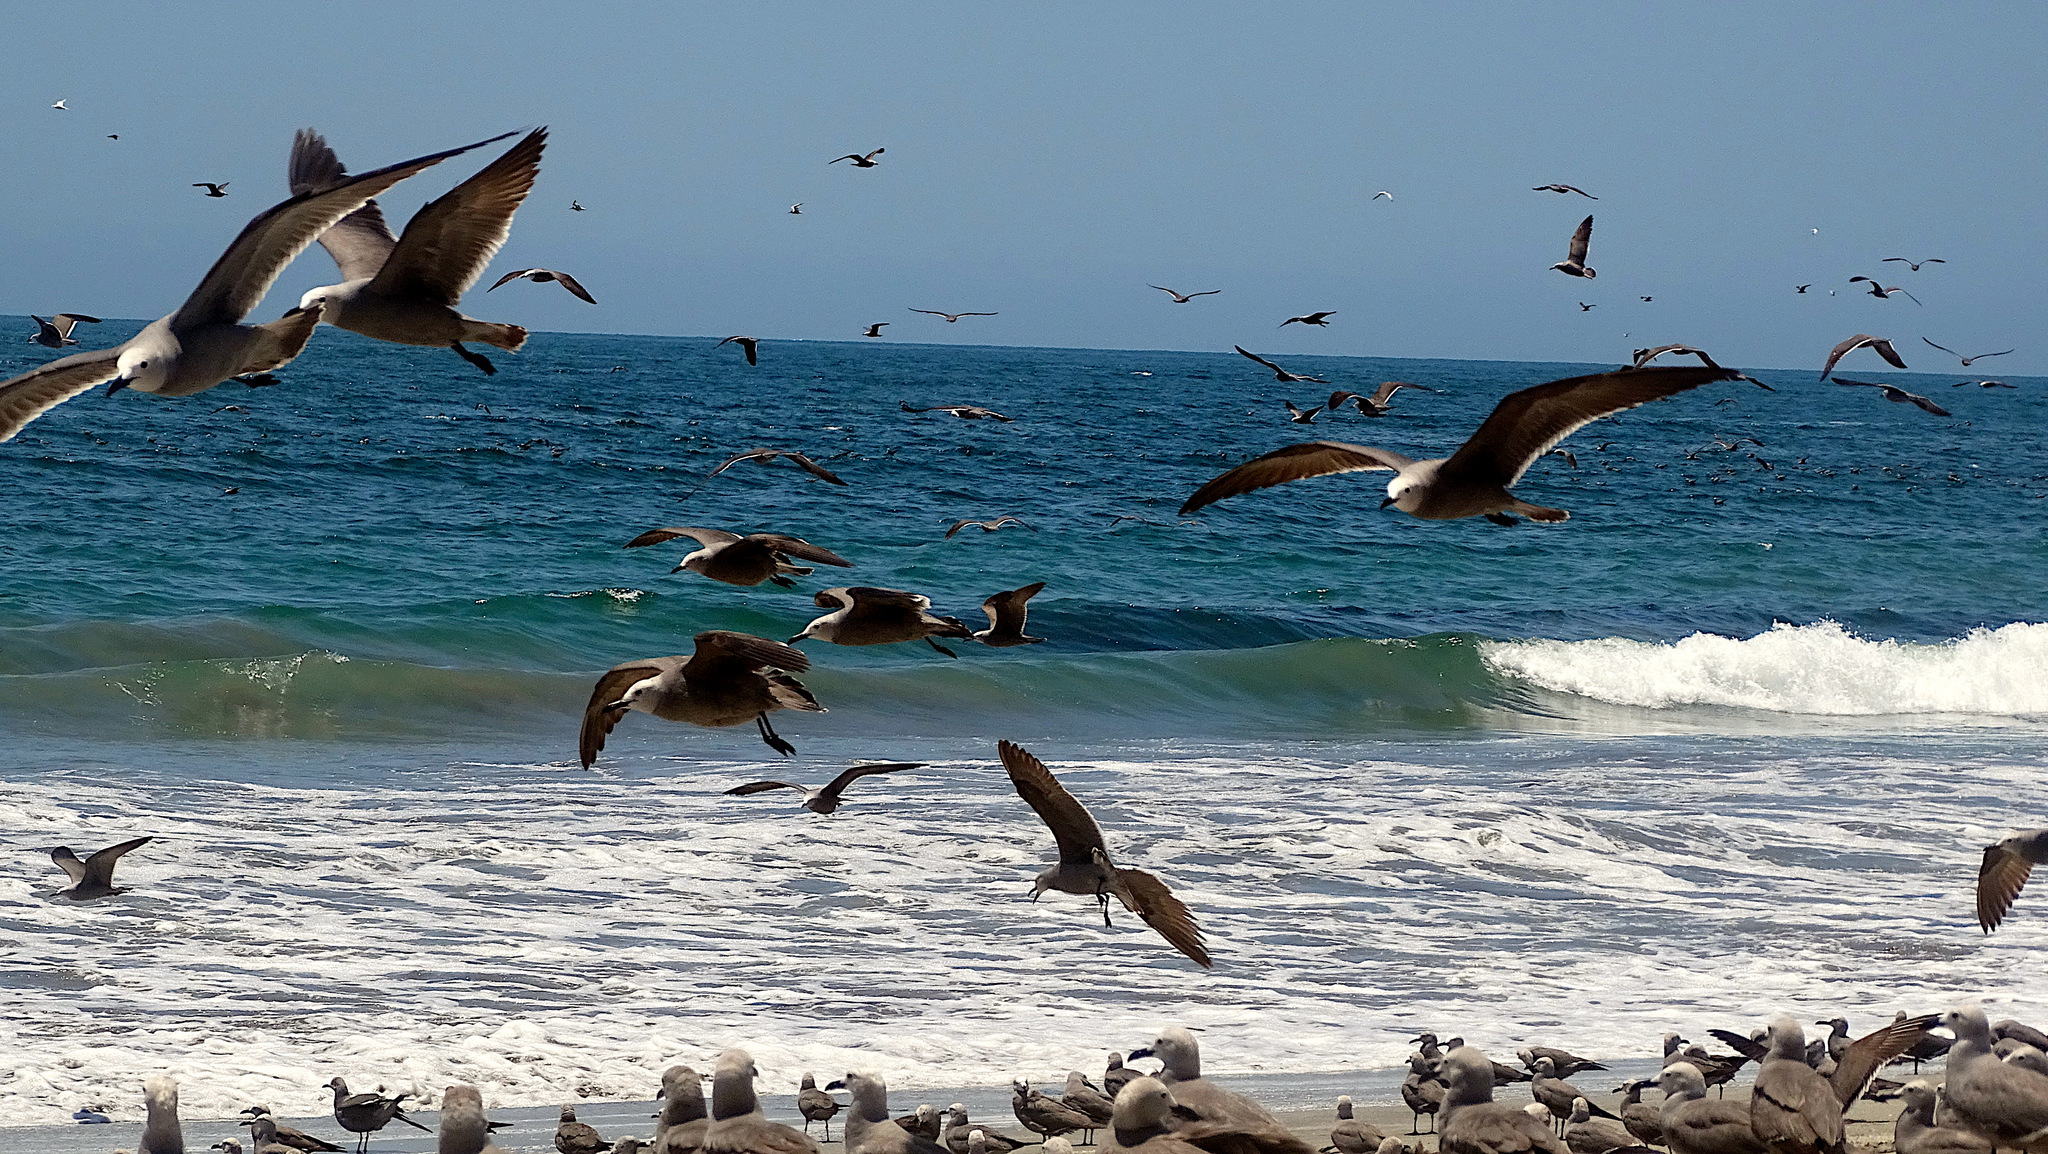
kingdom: Animalia
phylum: Chordata
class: Aves
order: Charadriiformes
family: Laridae
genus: Leucophaeus
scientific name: Leucophaeus modestus
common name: Gray gull
